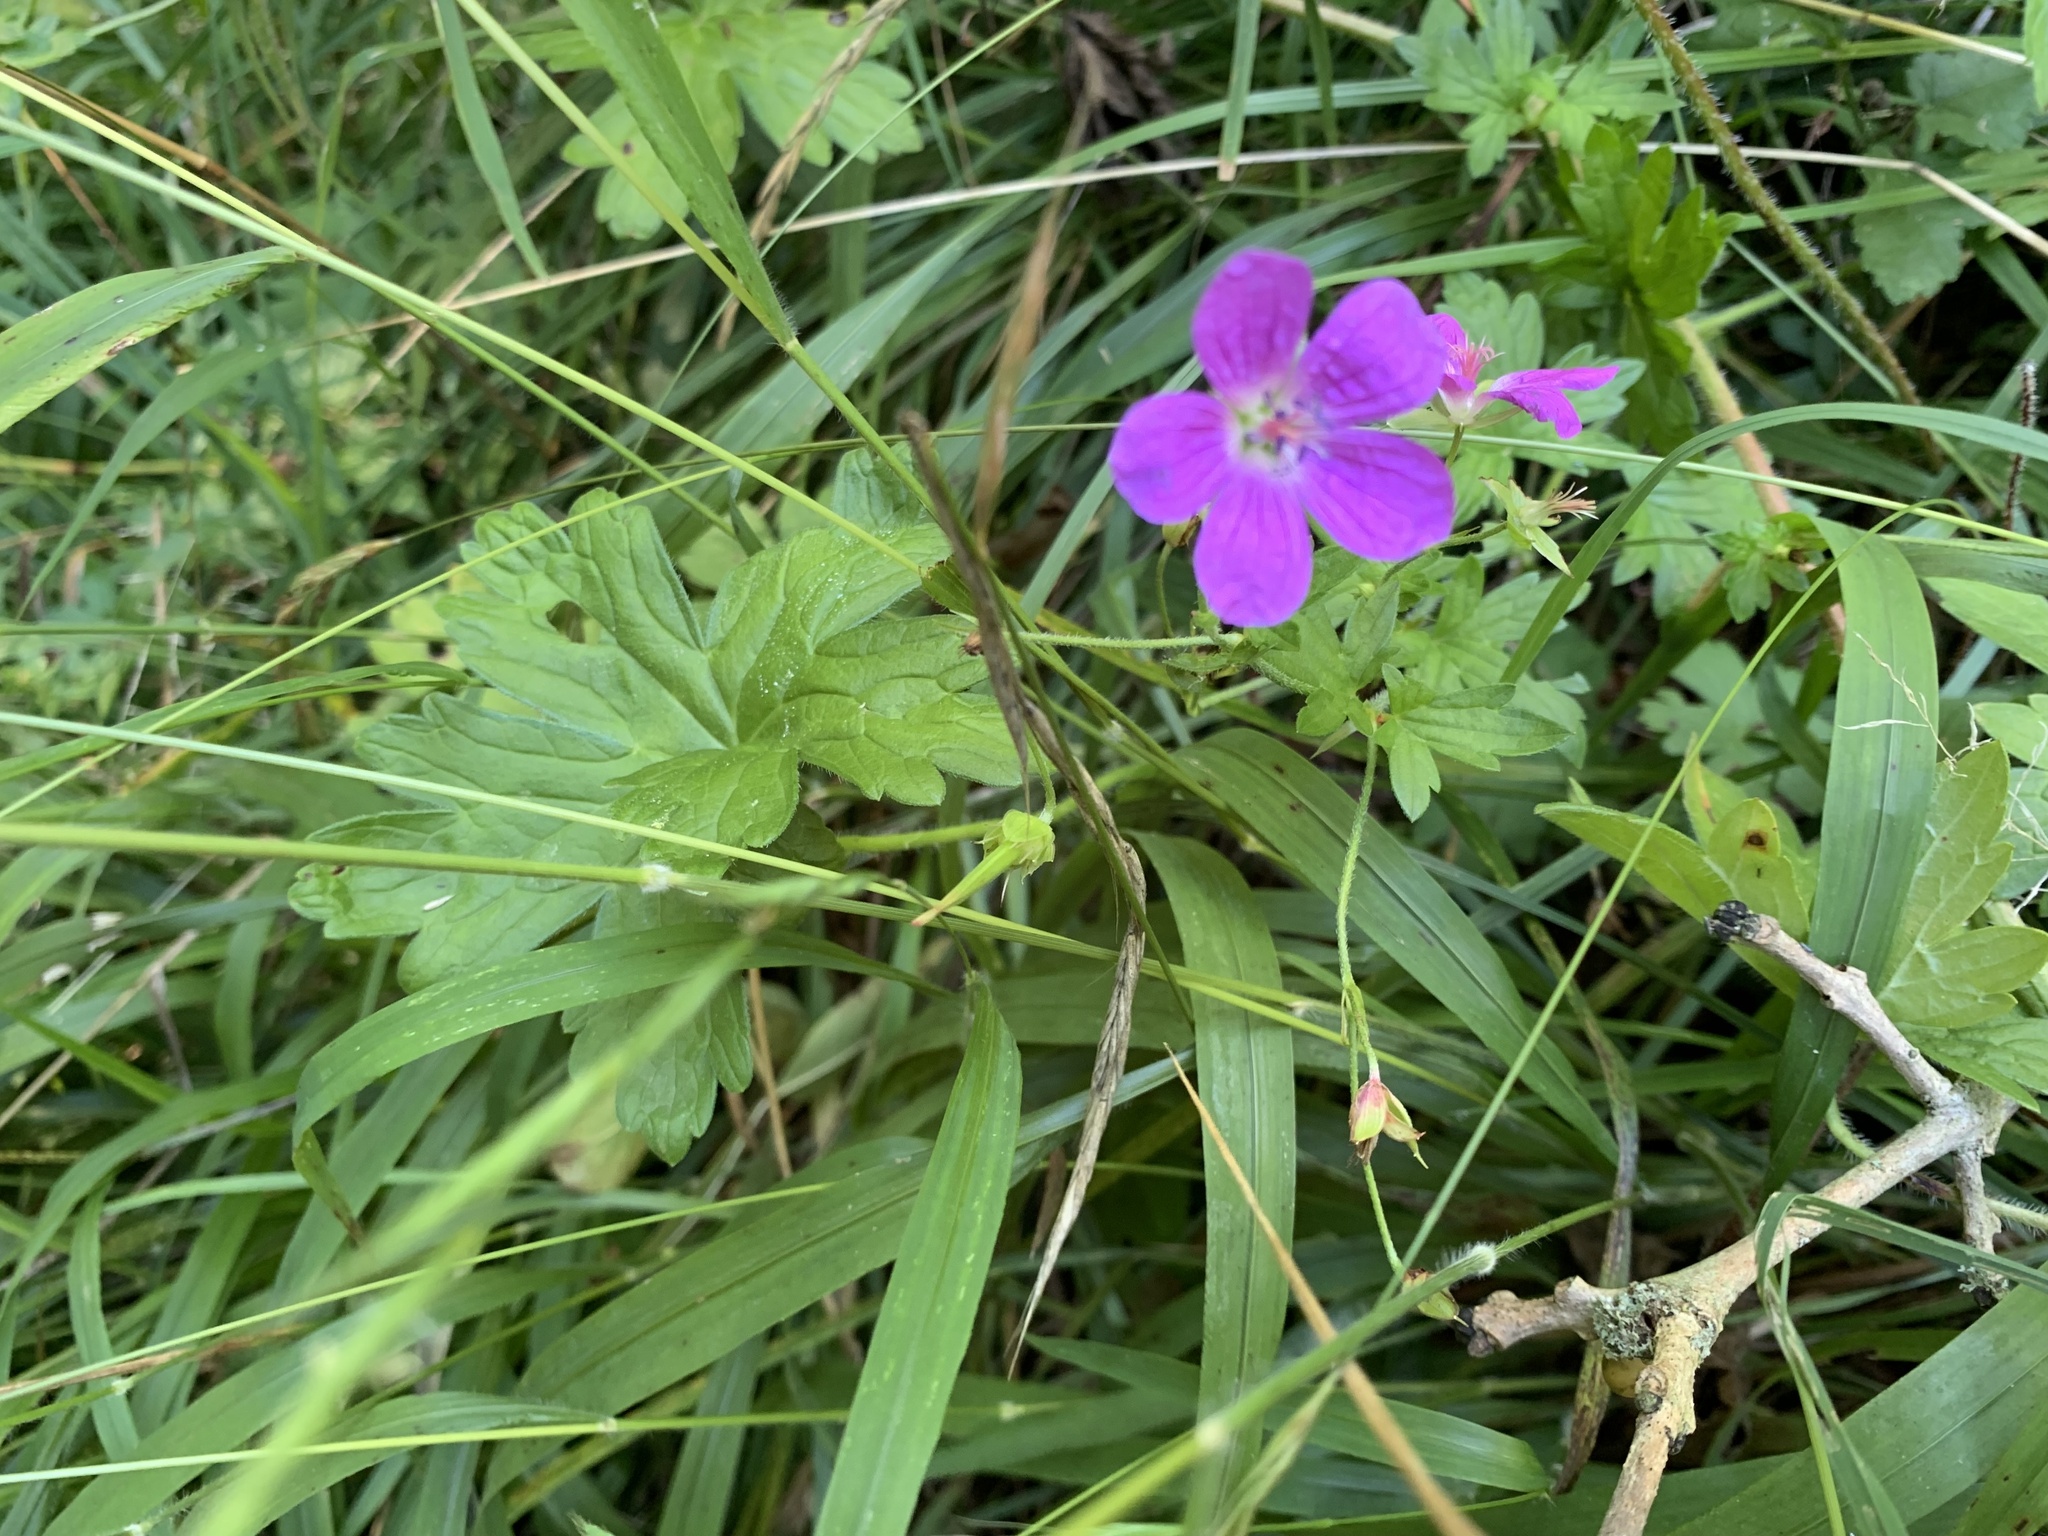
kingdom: Plantae
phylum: Tracheophyta
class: Magnoliopsida
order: Geraniales
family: Geraniaceae
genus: Geranium
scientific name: Geranium palustre
